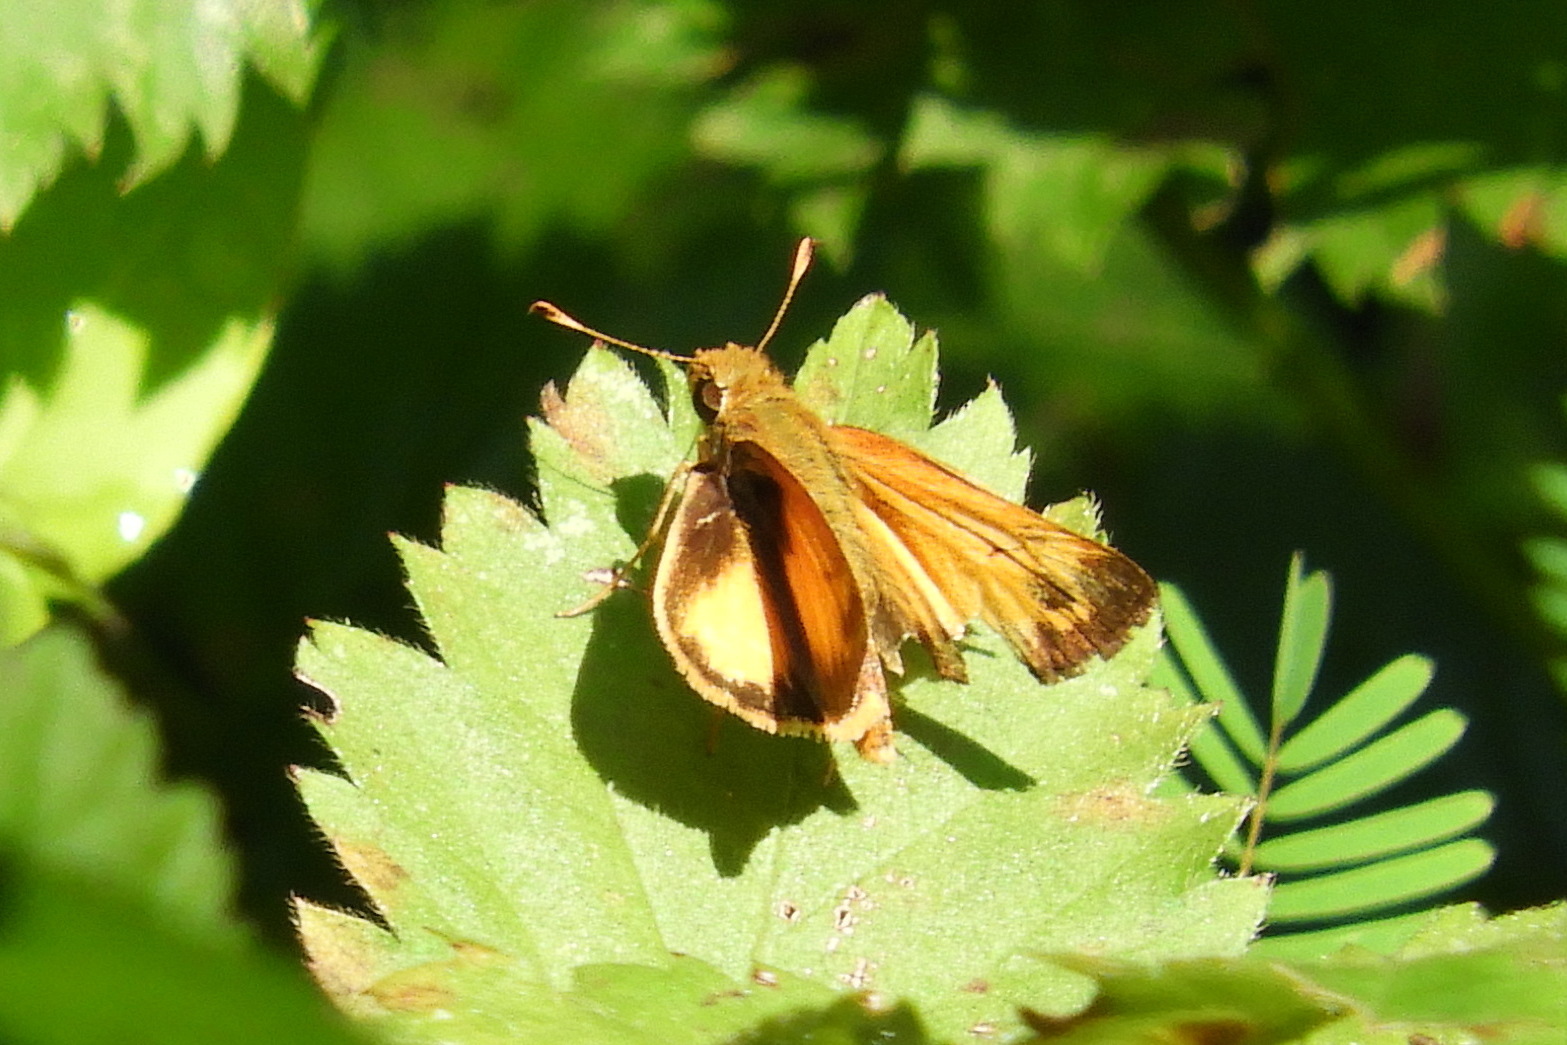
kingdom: Animalia
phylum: Arthropoda
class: Insecta
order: Lepidoptera
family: Hesperiidae
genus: Lon
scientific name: Lon zabulon
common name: Zabulon skipper
